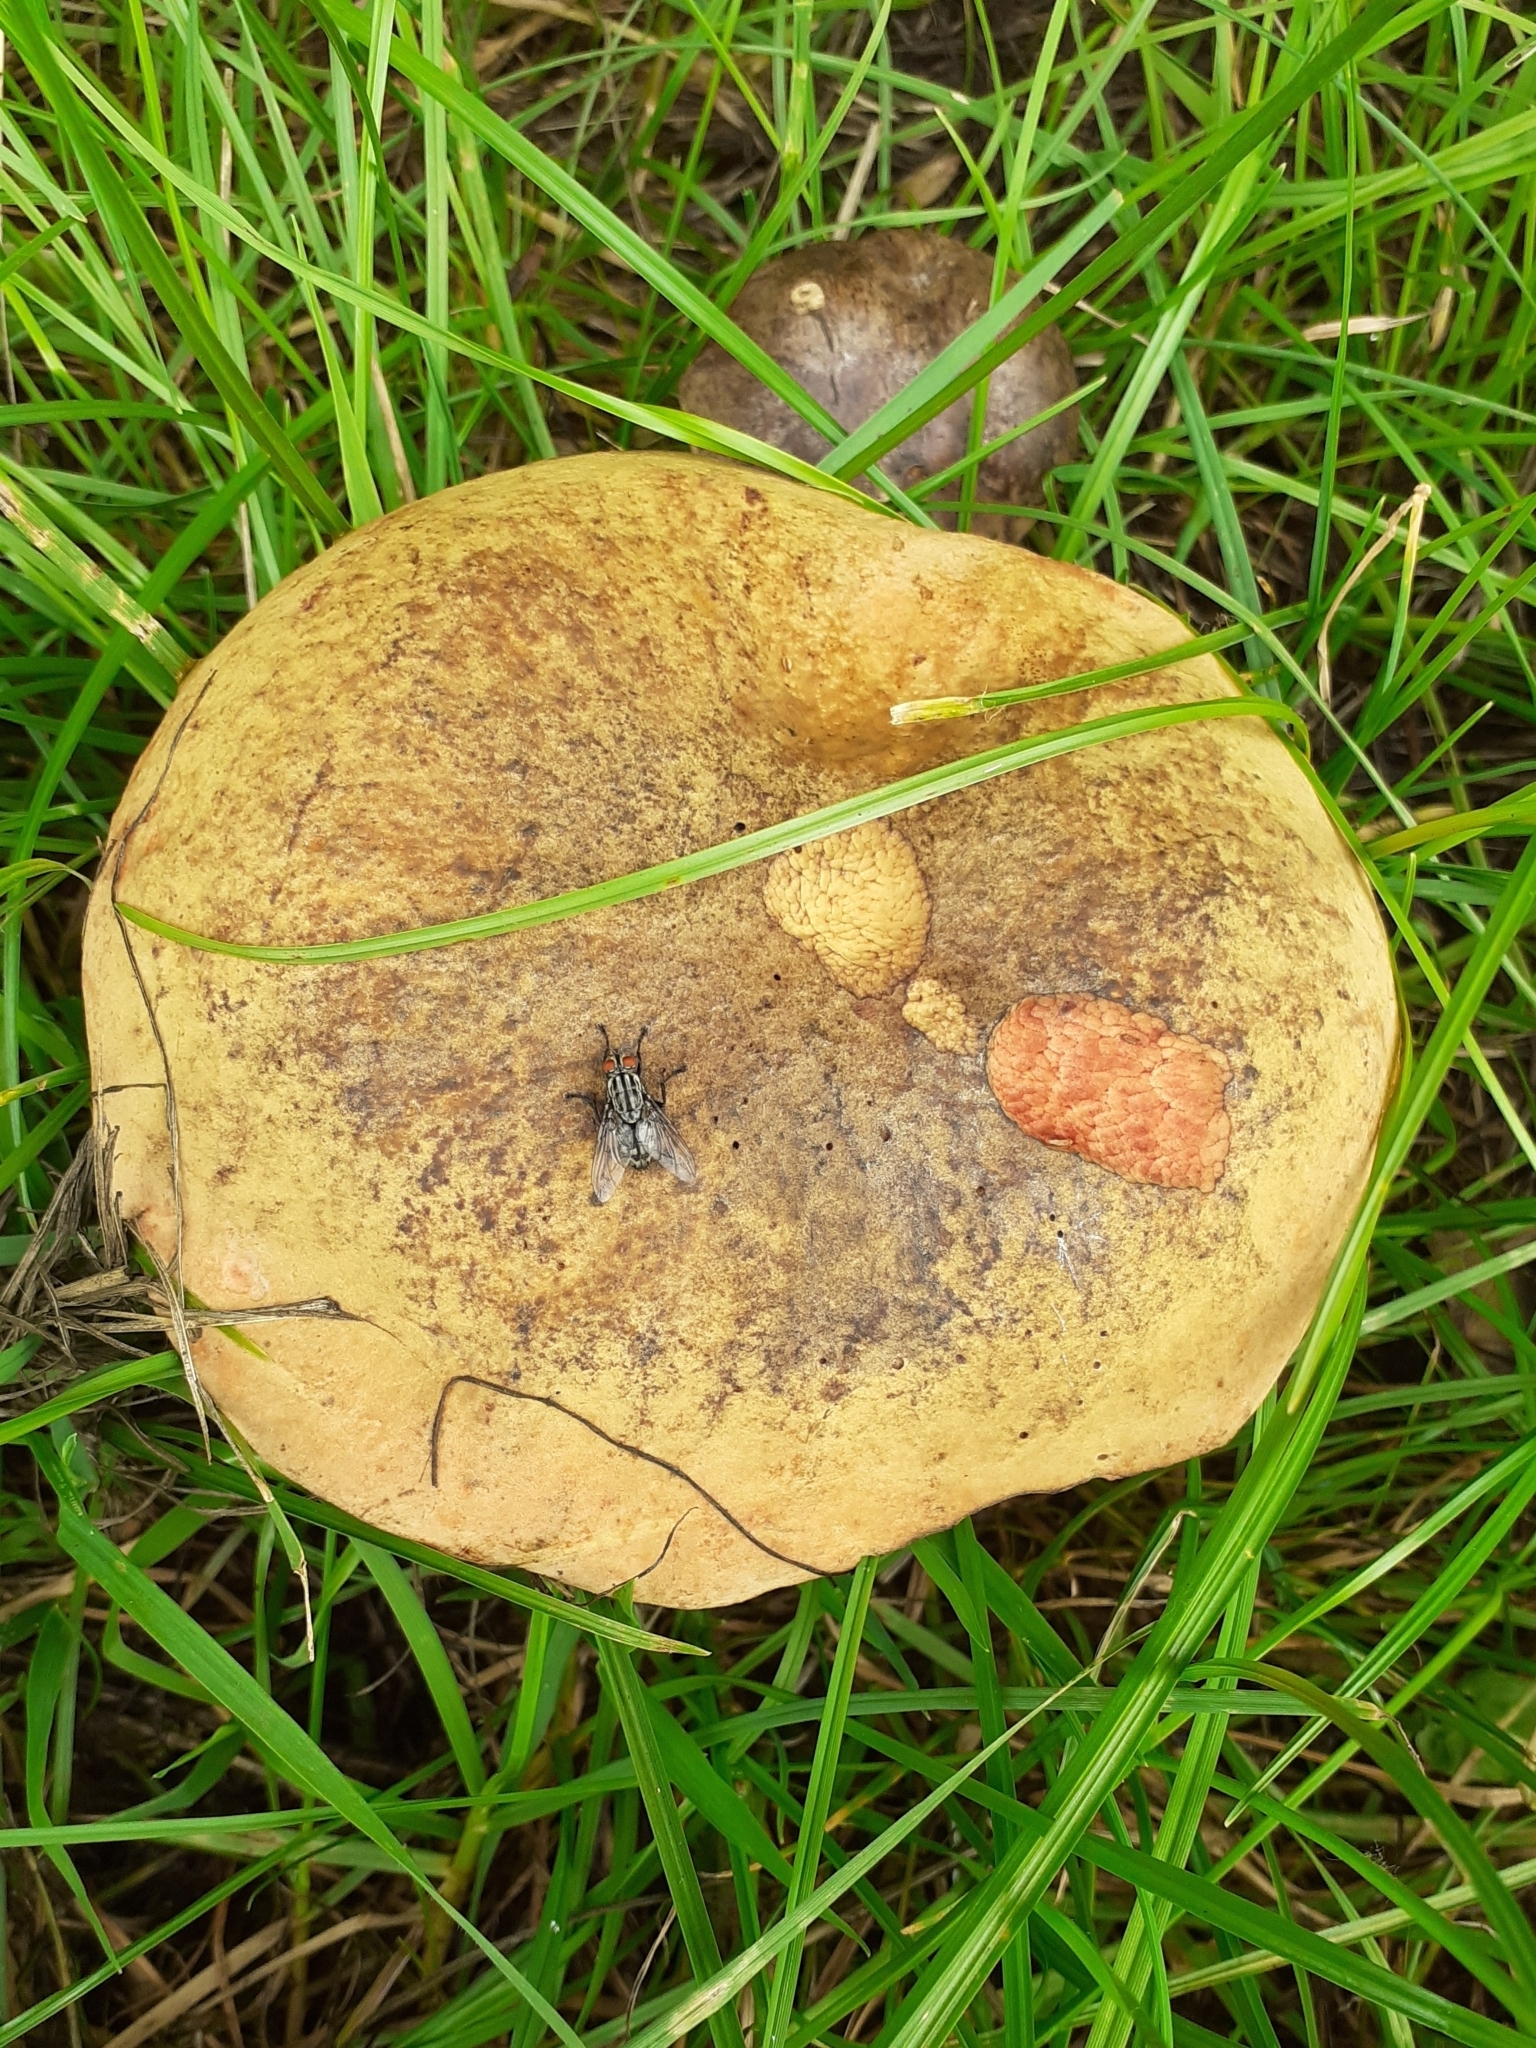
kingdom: Fungi
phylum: Basidiomycota
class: Agaricomycetes
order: Boletales
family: Boletaceae
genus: Suillellus
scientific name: Suillellus luridus
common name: Lurid bolete
